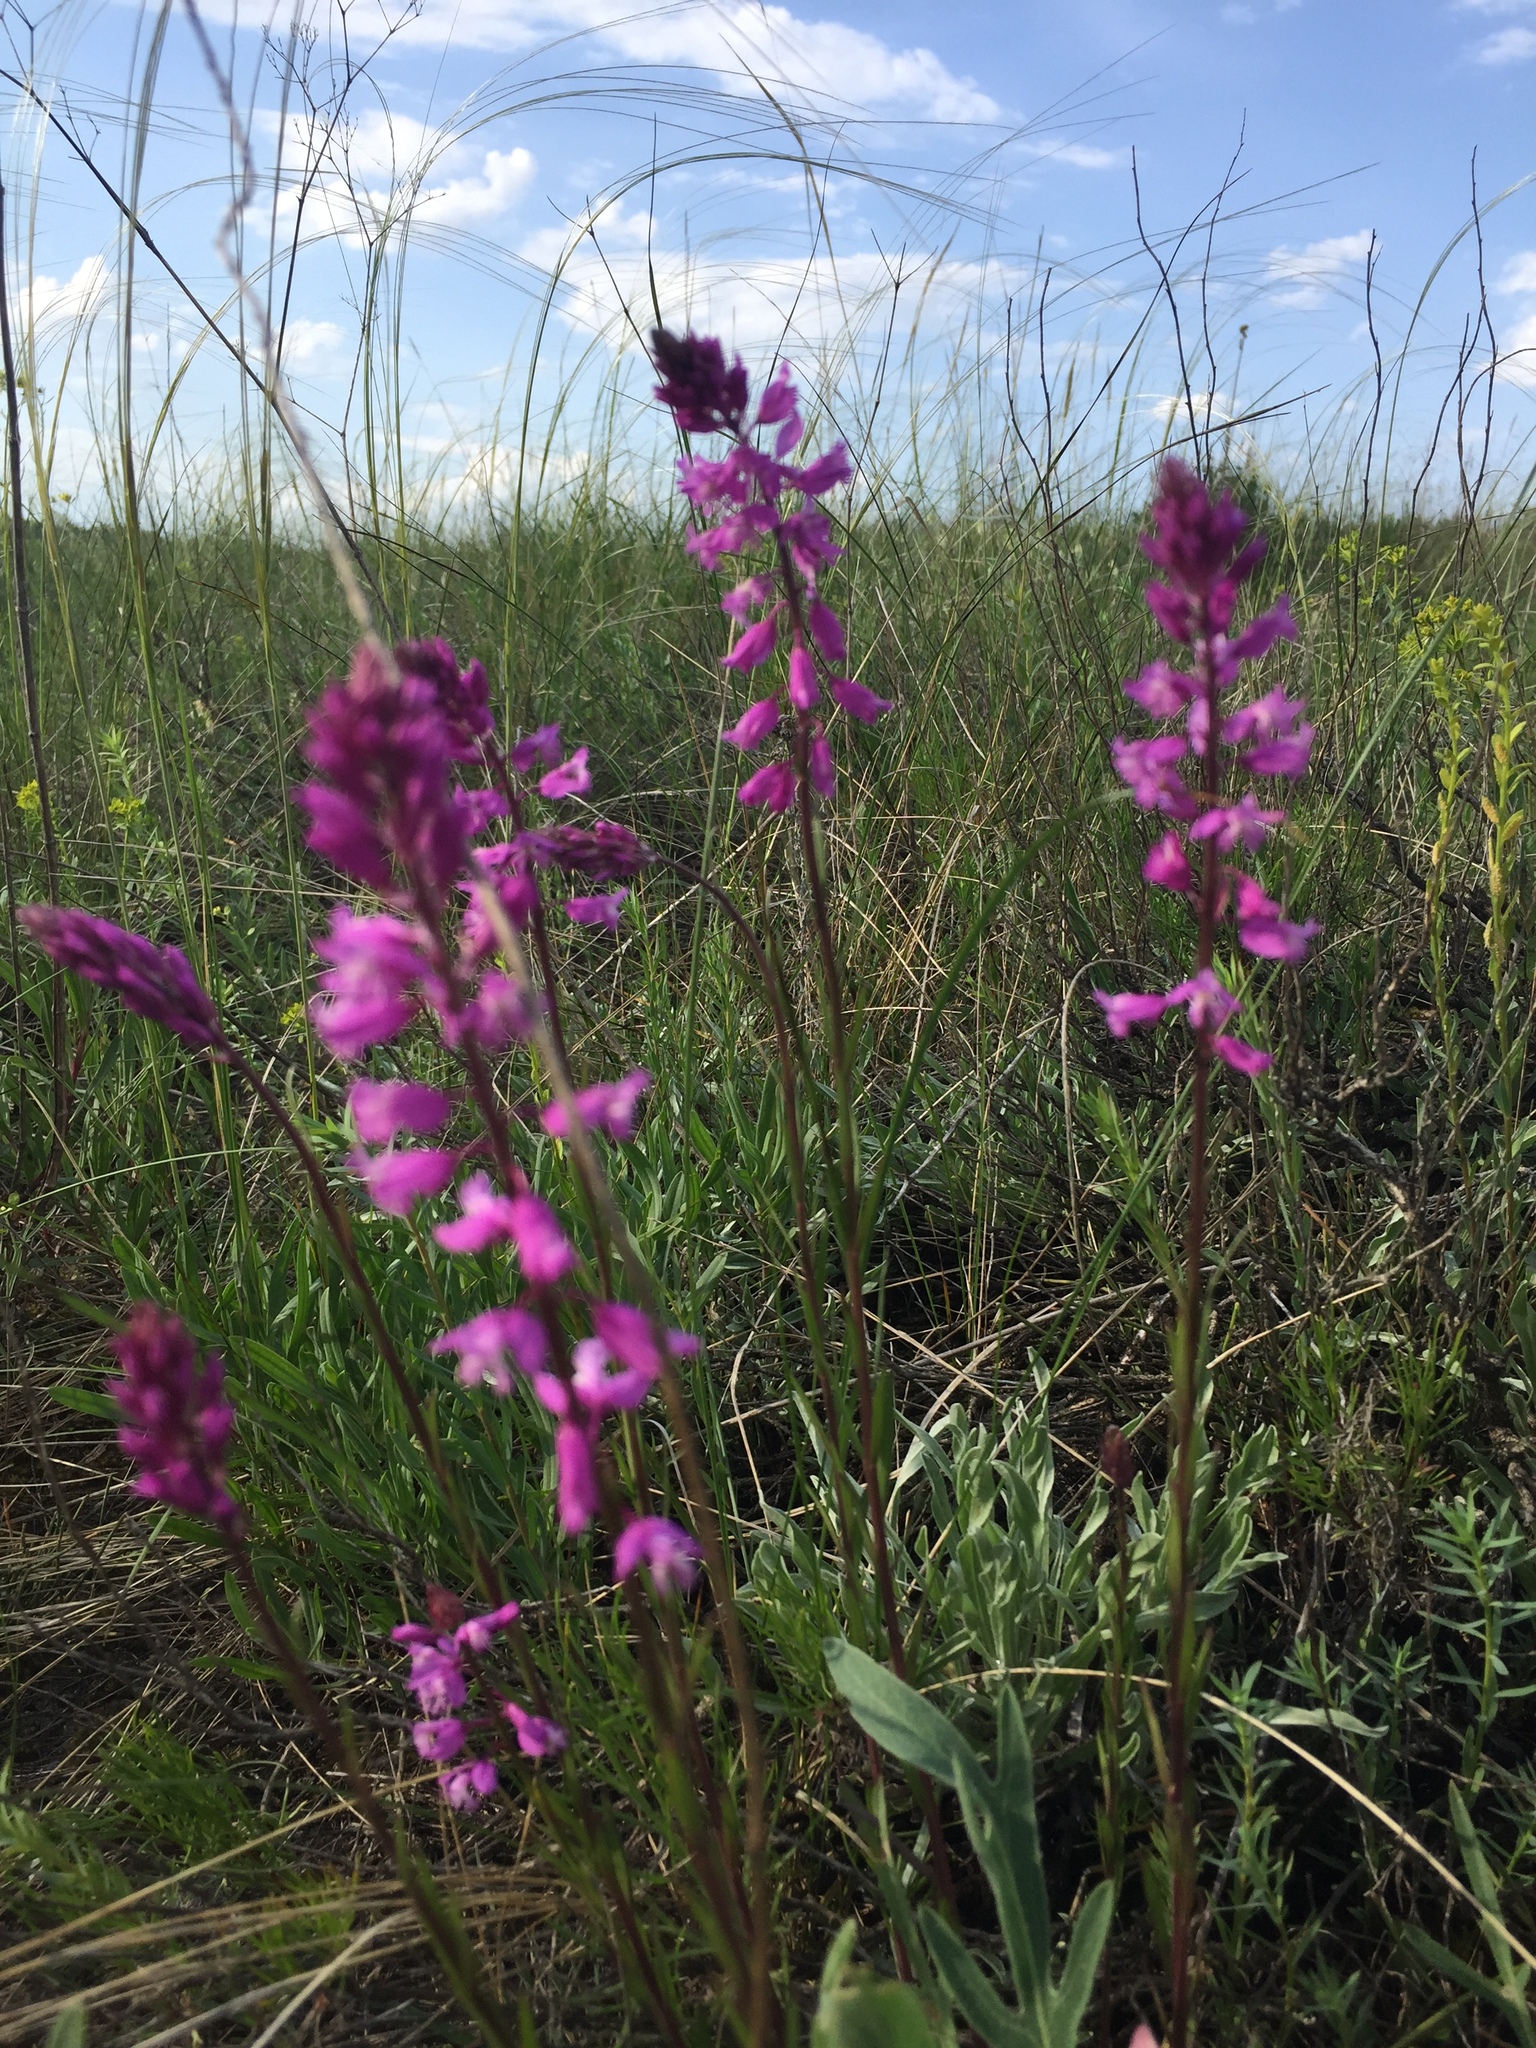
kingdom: Plantae
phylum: Tracheophyta
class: Magnoliopsida
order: Fabales
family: Polygalaceae
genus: Polygala
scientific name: Polygala nicaeensis
